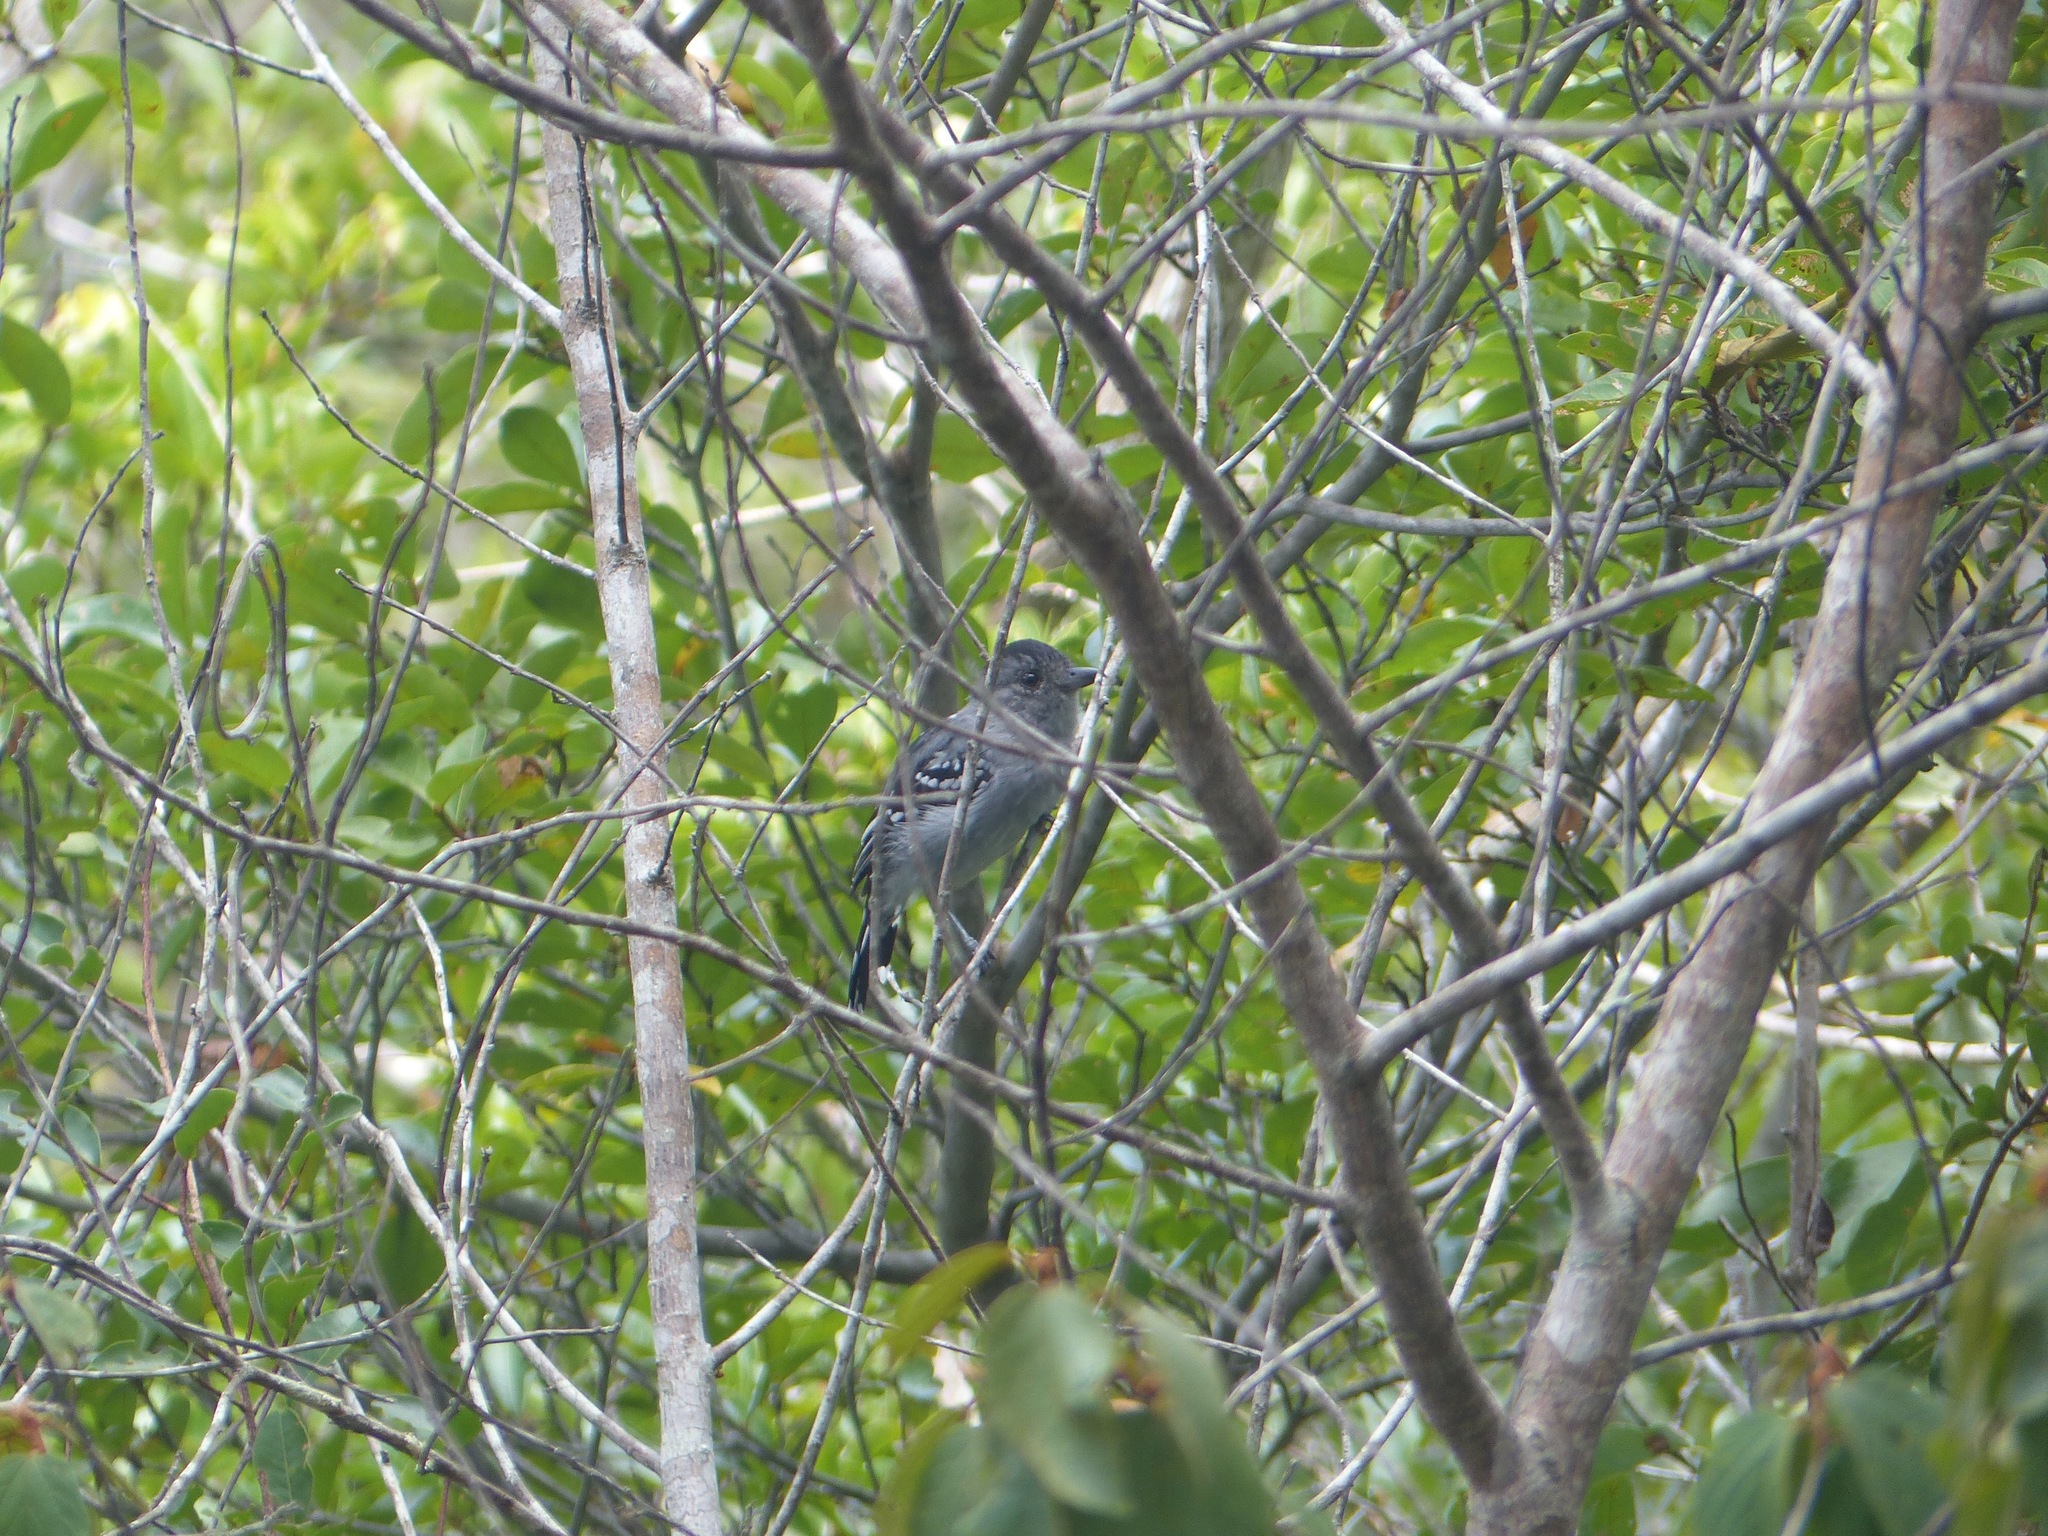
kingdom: Animalia
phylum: Chordata
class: Aves
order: Passeriformes
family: Thamnophilidae
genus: Thamnophilus
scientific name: Thamnophilus pelzelni
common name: Planalto slaty-antshrike
